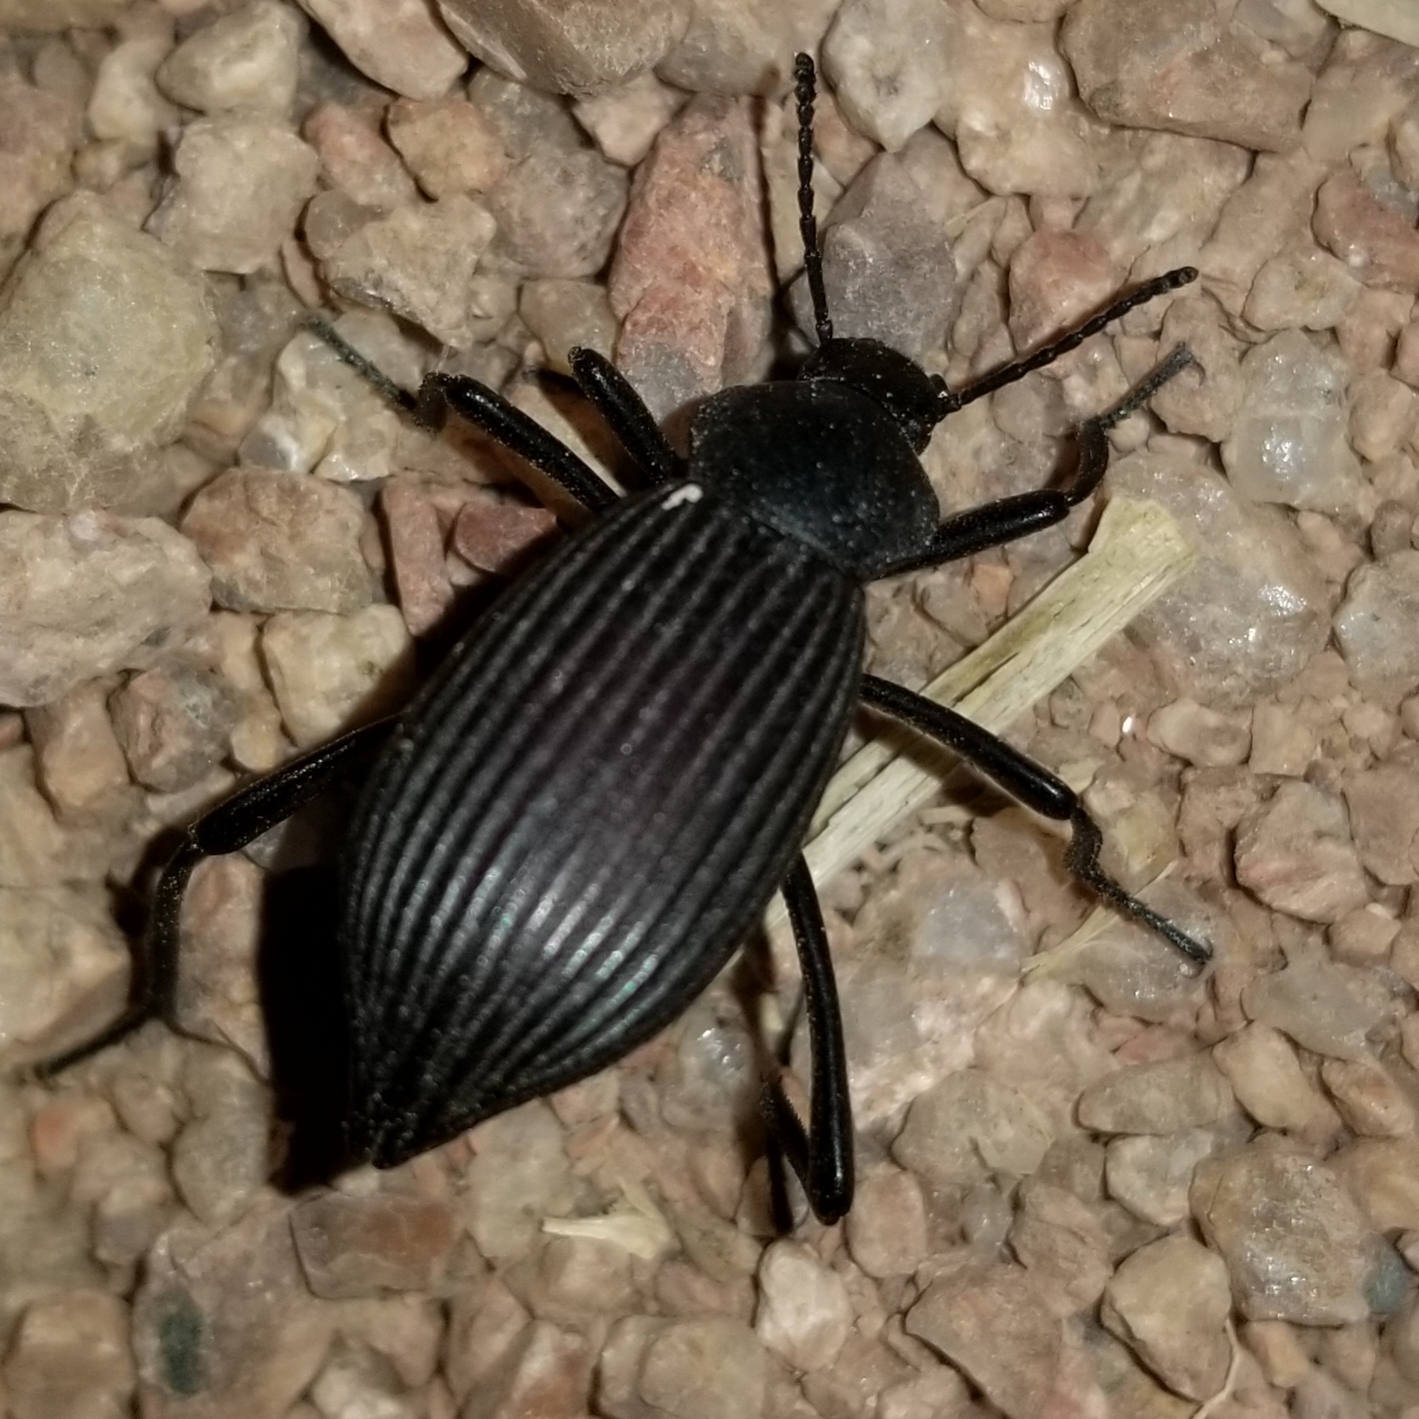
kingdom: Animalia
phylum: Arthropoda
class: Insecta
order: Coleoptera
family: Tenebrionidae
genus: Eleodes
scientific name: Eleodes hispilabris
